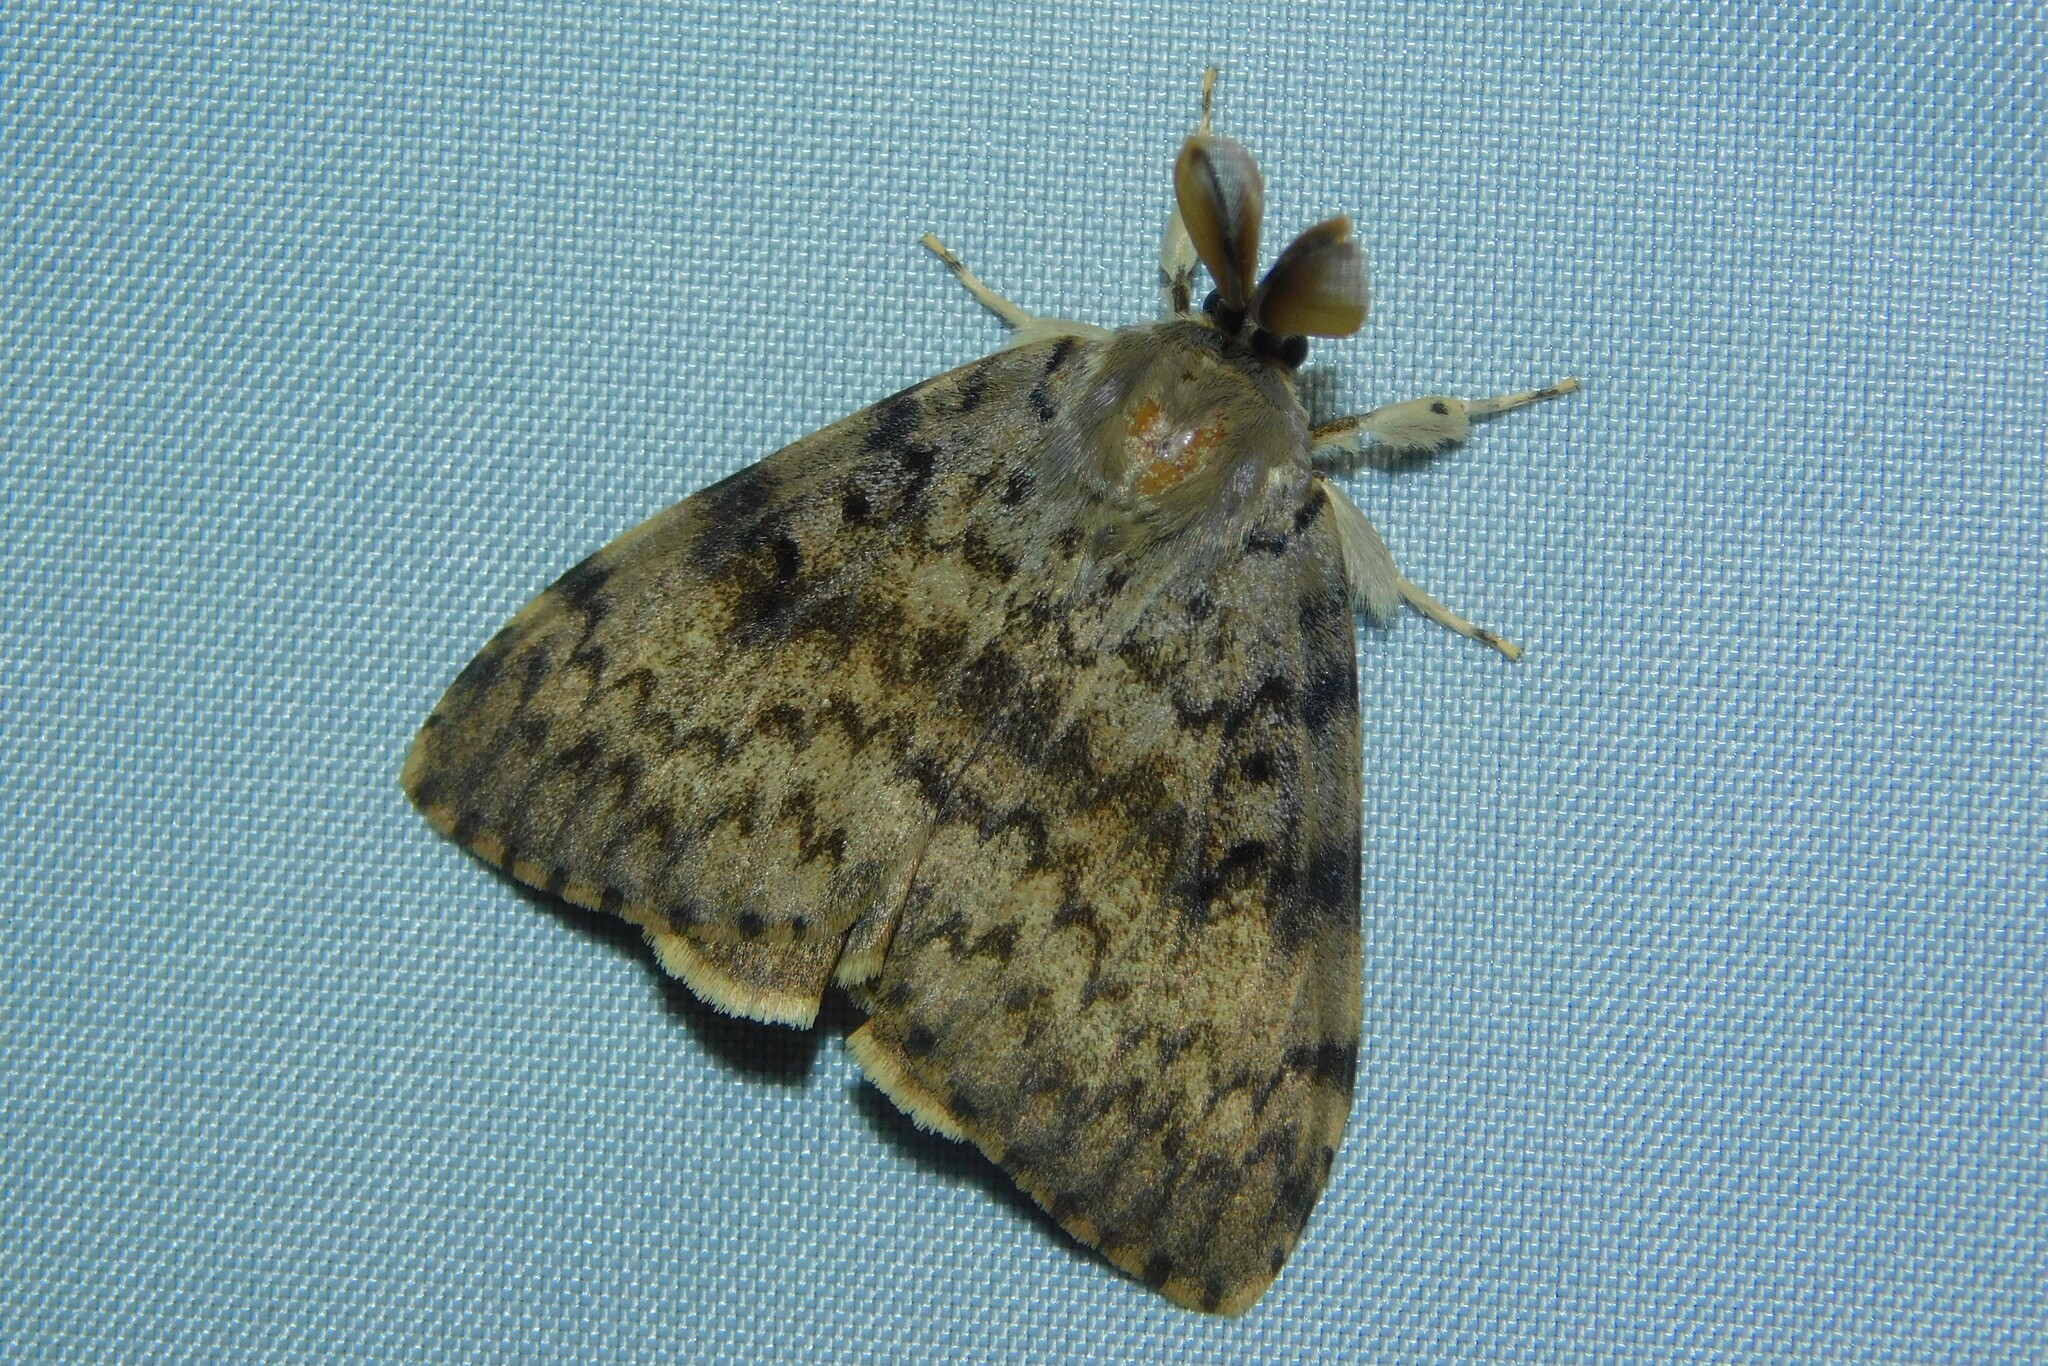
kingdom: Animalia
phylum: Arthropoda
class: Insecta
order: Lepidoptera
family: Erebidae
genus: Lymantria
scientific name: Lymantria dispar
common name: Gypsy moth
